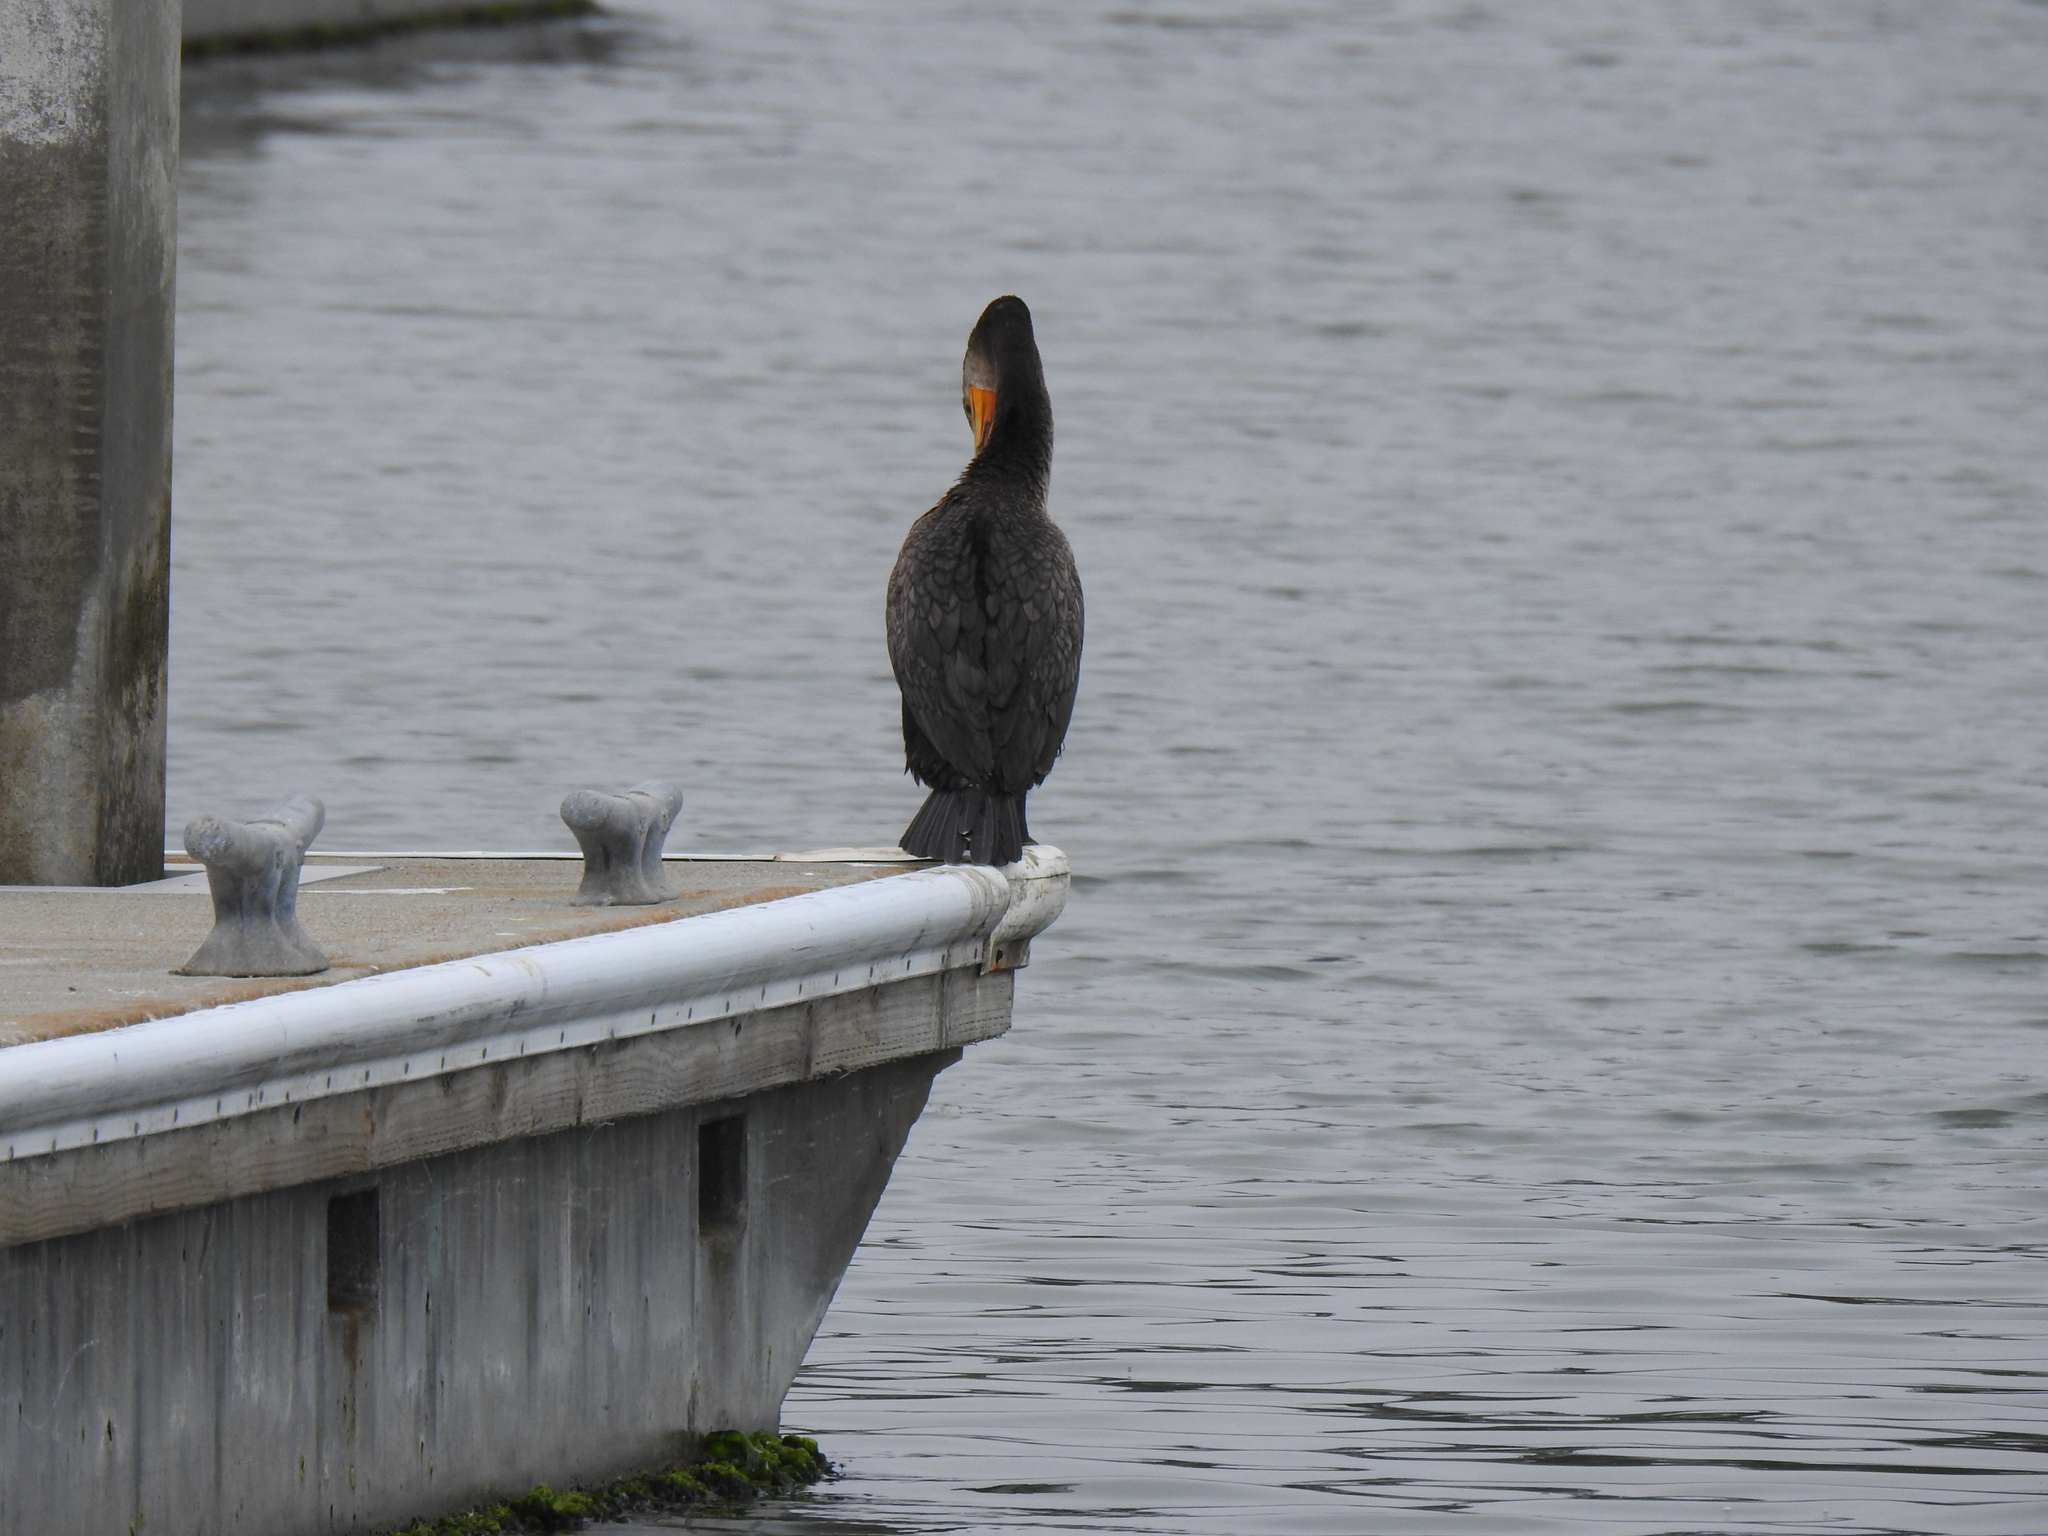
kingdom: Animalia
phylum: Chordata
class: Aves
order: Suliformes
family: Phalacrocoracidae
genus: Phalacrocorax
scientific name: Phalacrocorax auritus
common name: Double-crested cormorant
